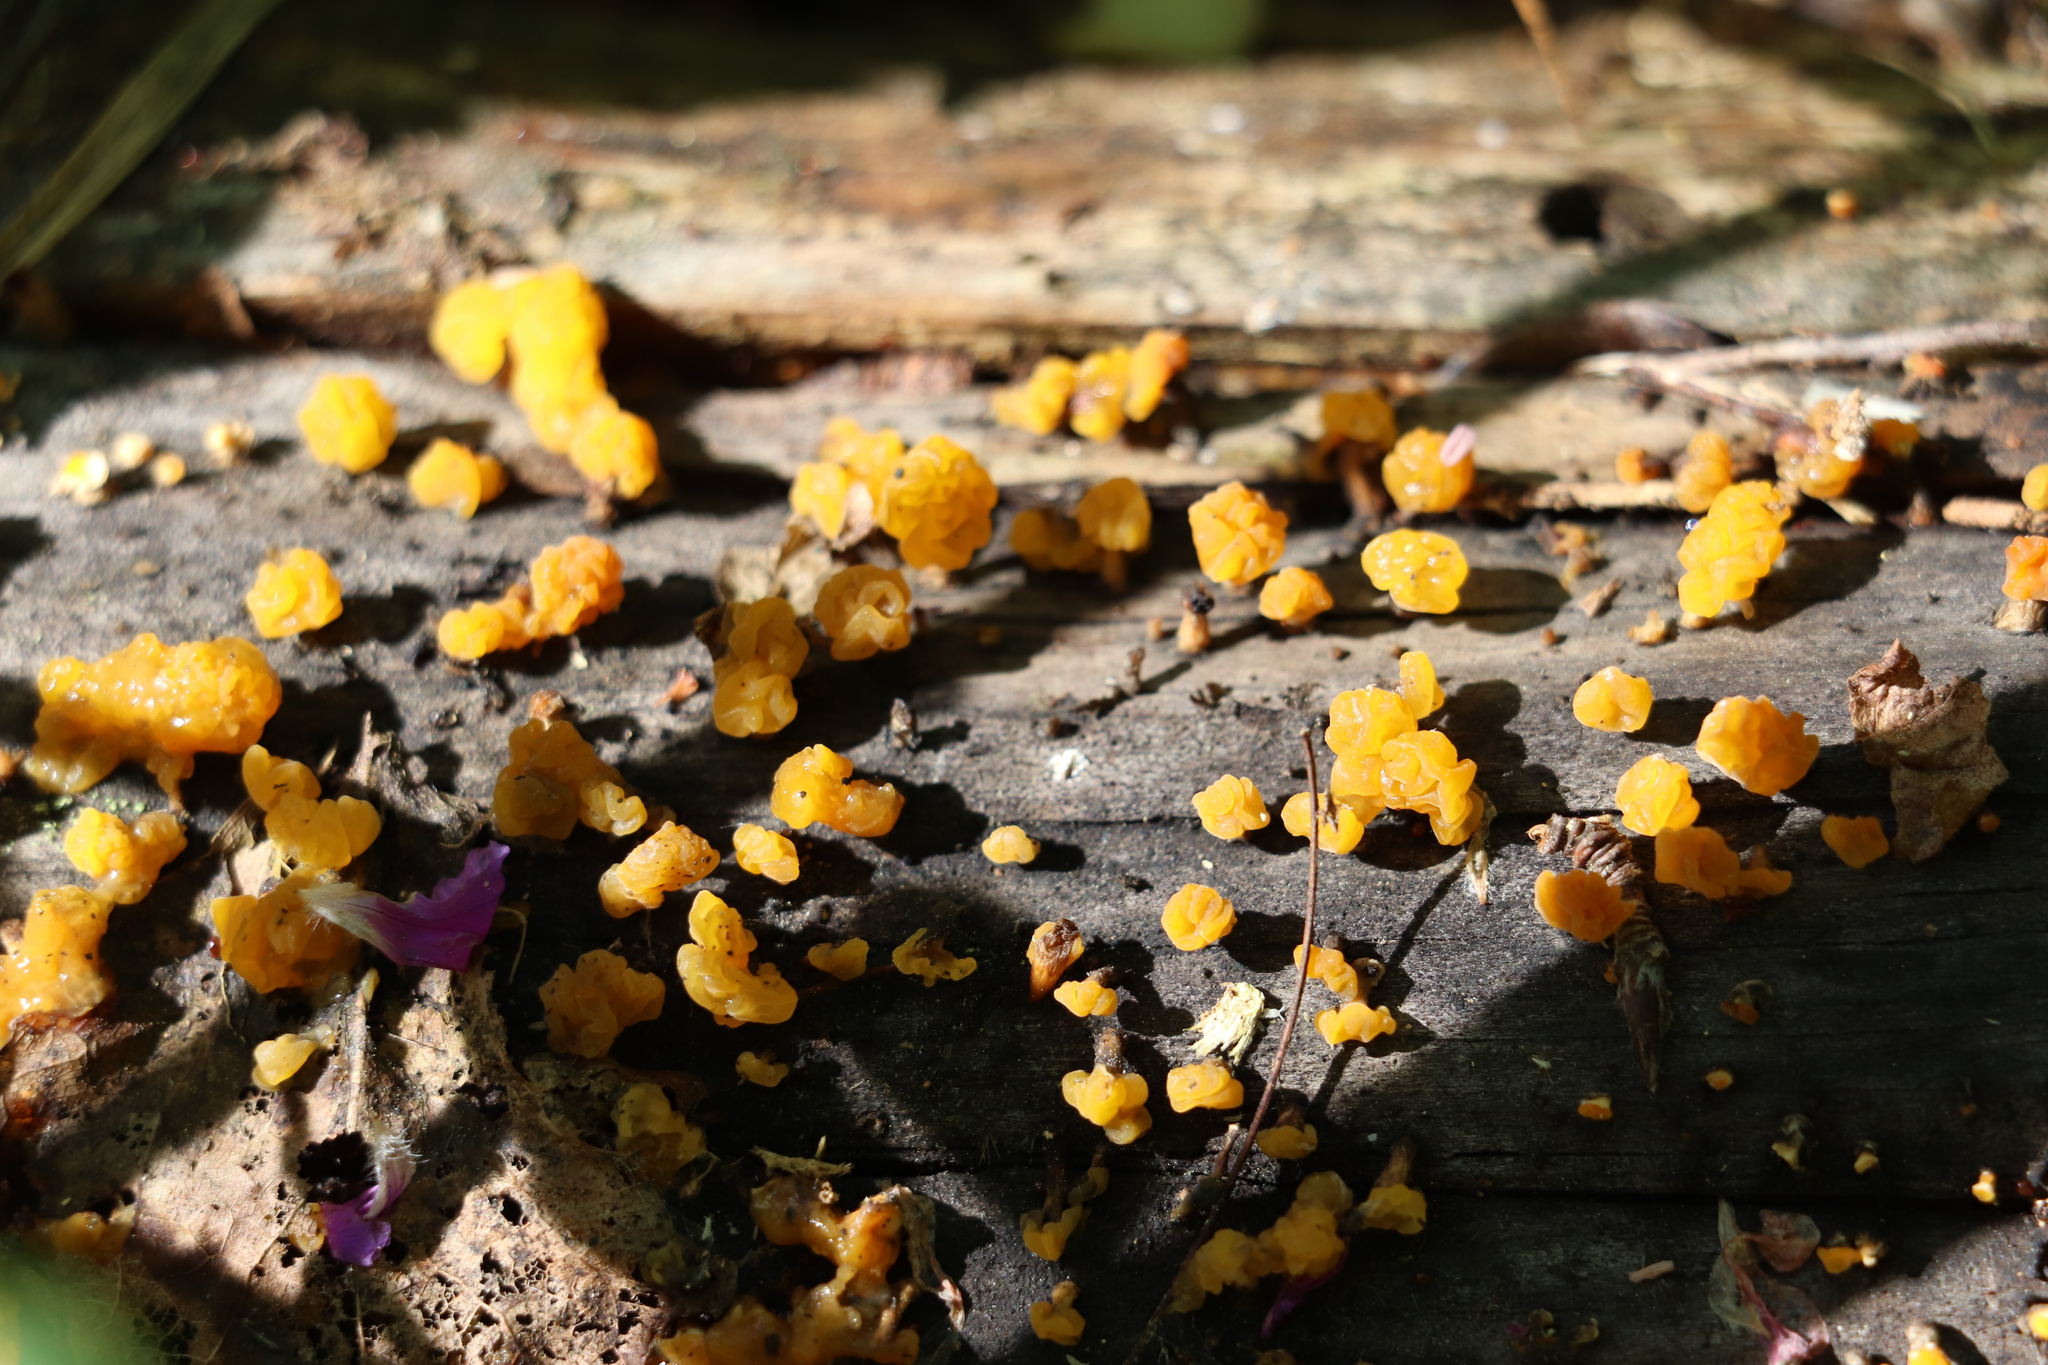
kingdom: Fungi
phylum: Basidiomycota
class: Dacrymycetes
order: Dacrymycetales
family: Dacrymycetaceae
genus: Ditiola
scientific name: Ditiola radicata
